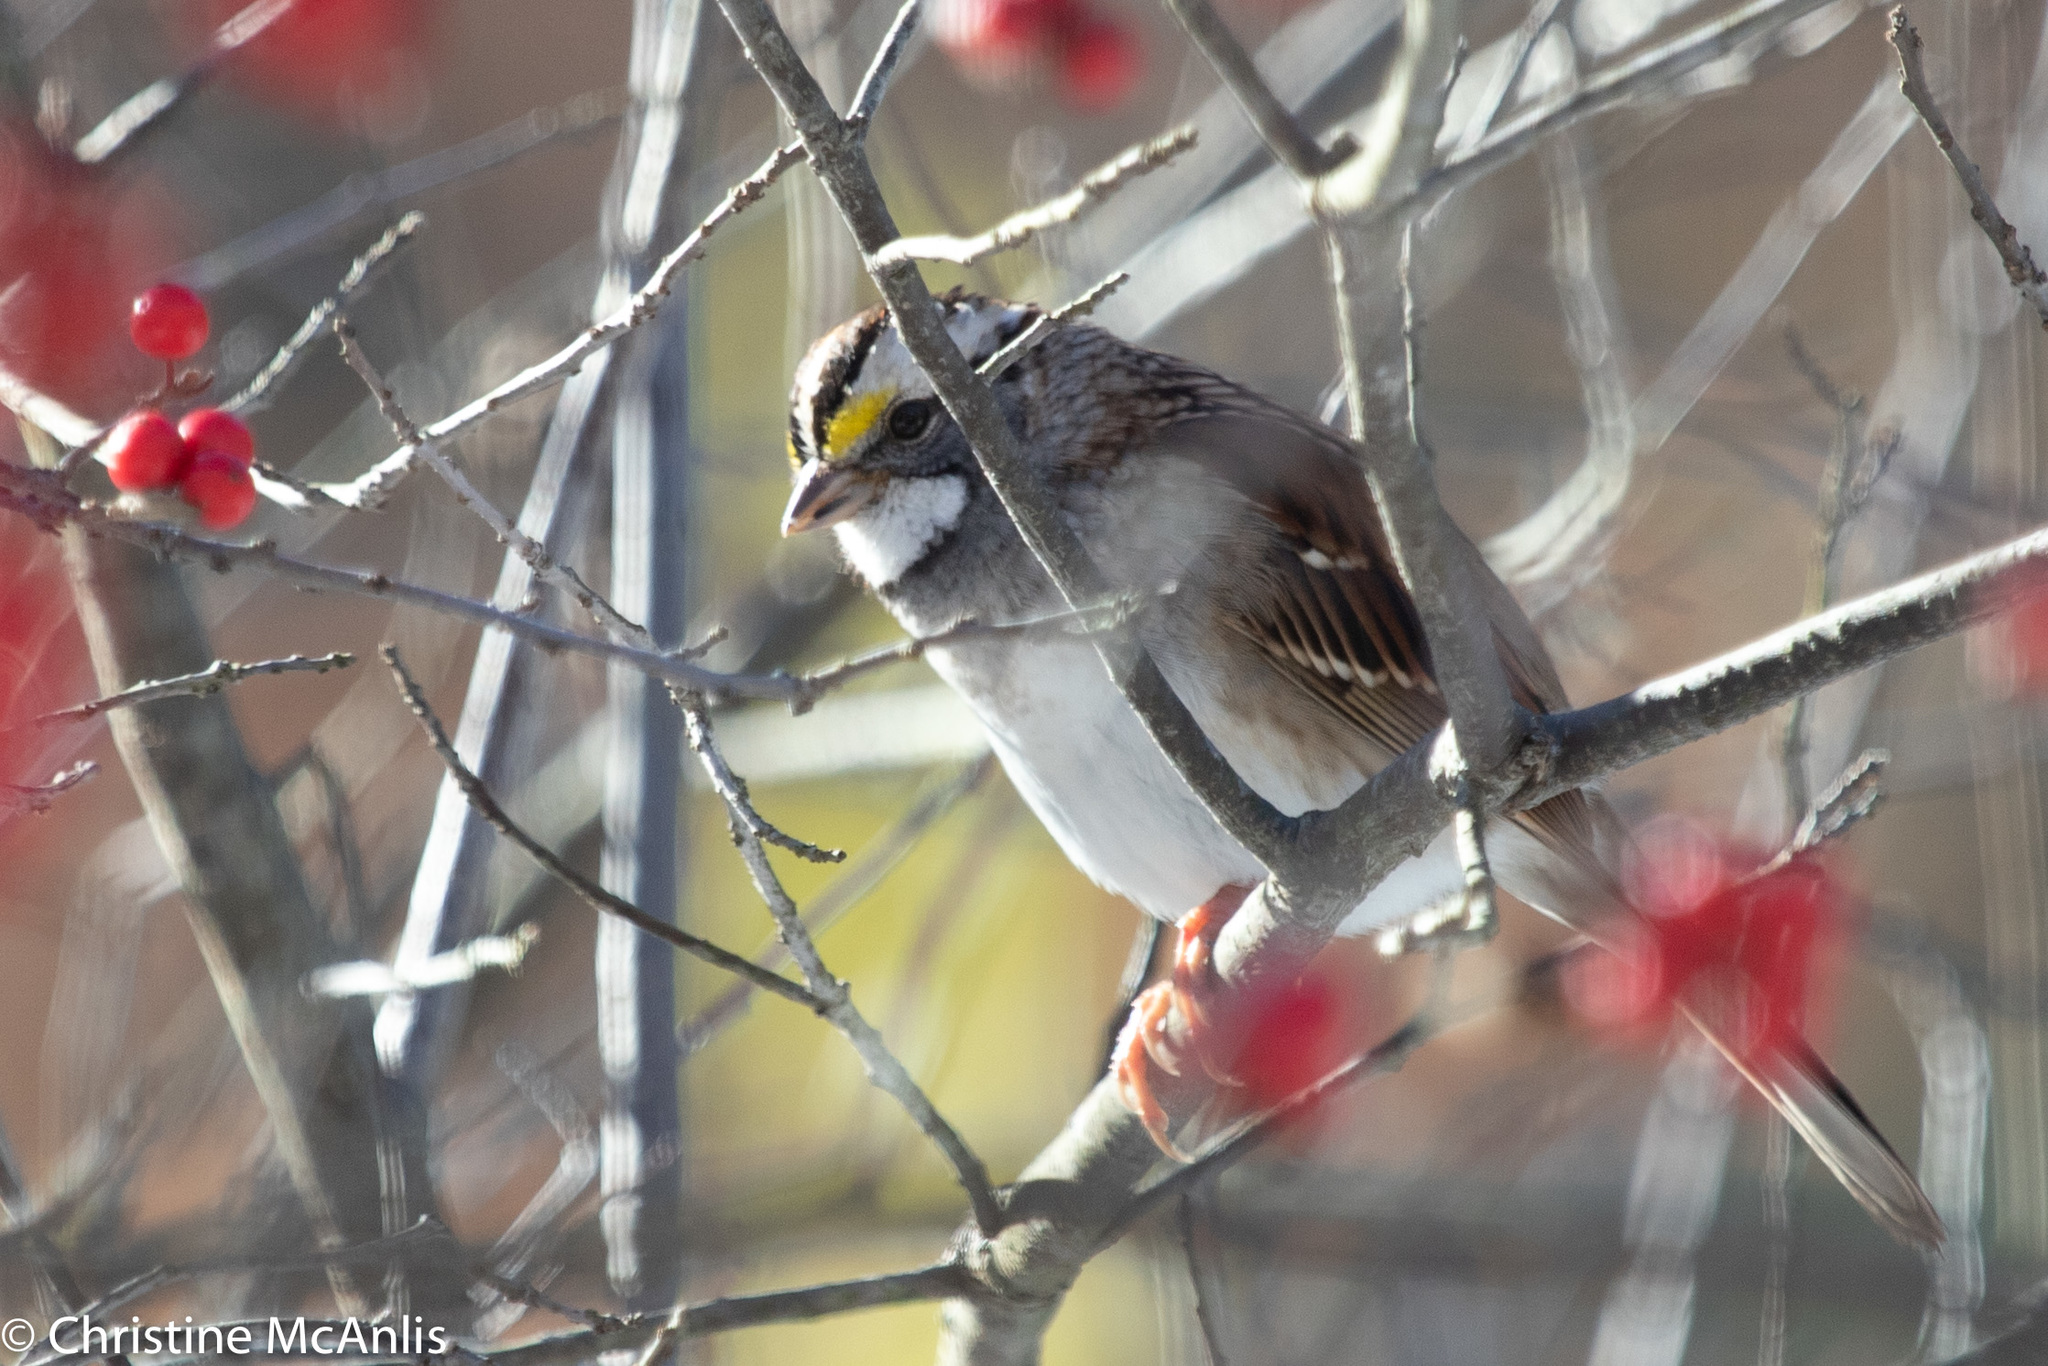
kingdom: Animalia
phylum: Chordata
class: Aves
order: Passeriformes
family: Passerellidae
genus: Zonotrichia
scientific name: Zonotrichia albicollis
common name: White-throated sparrow
